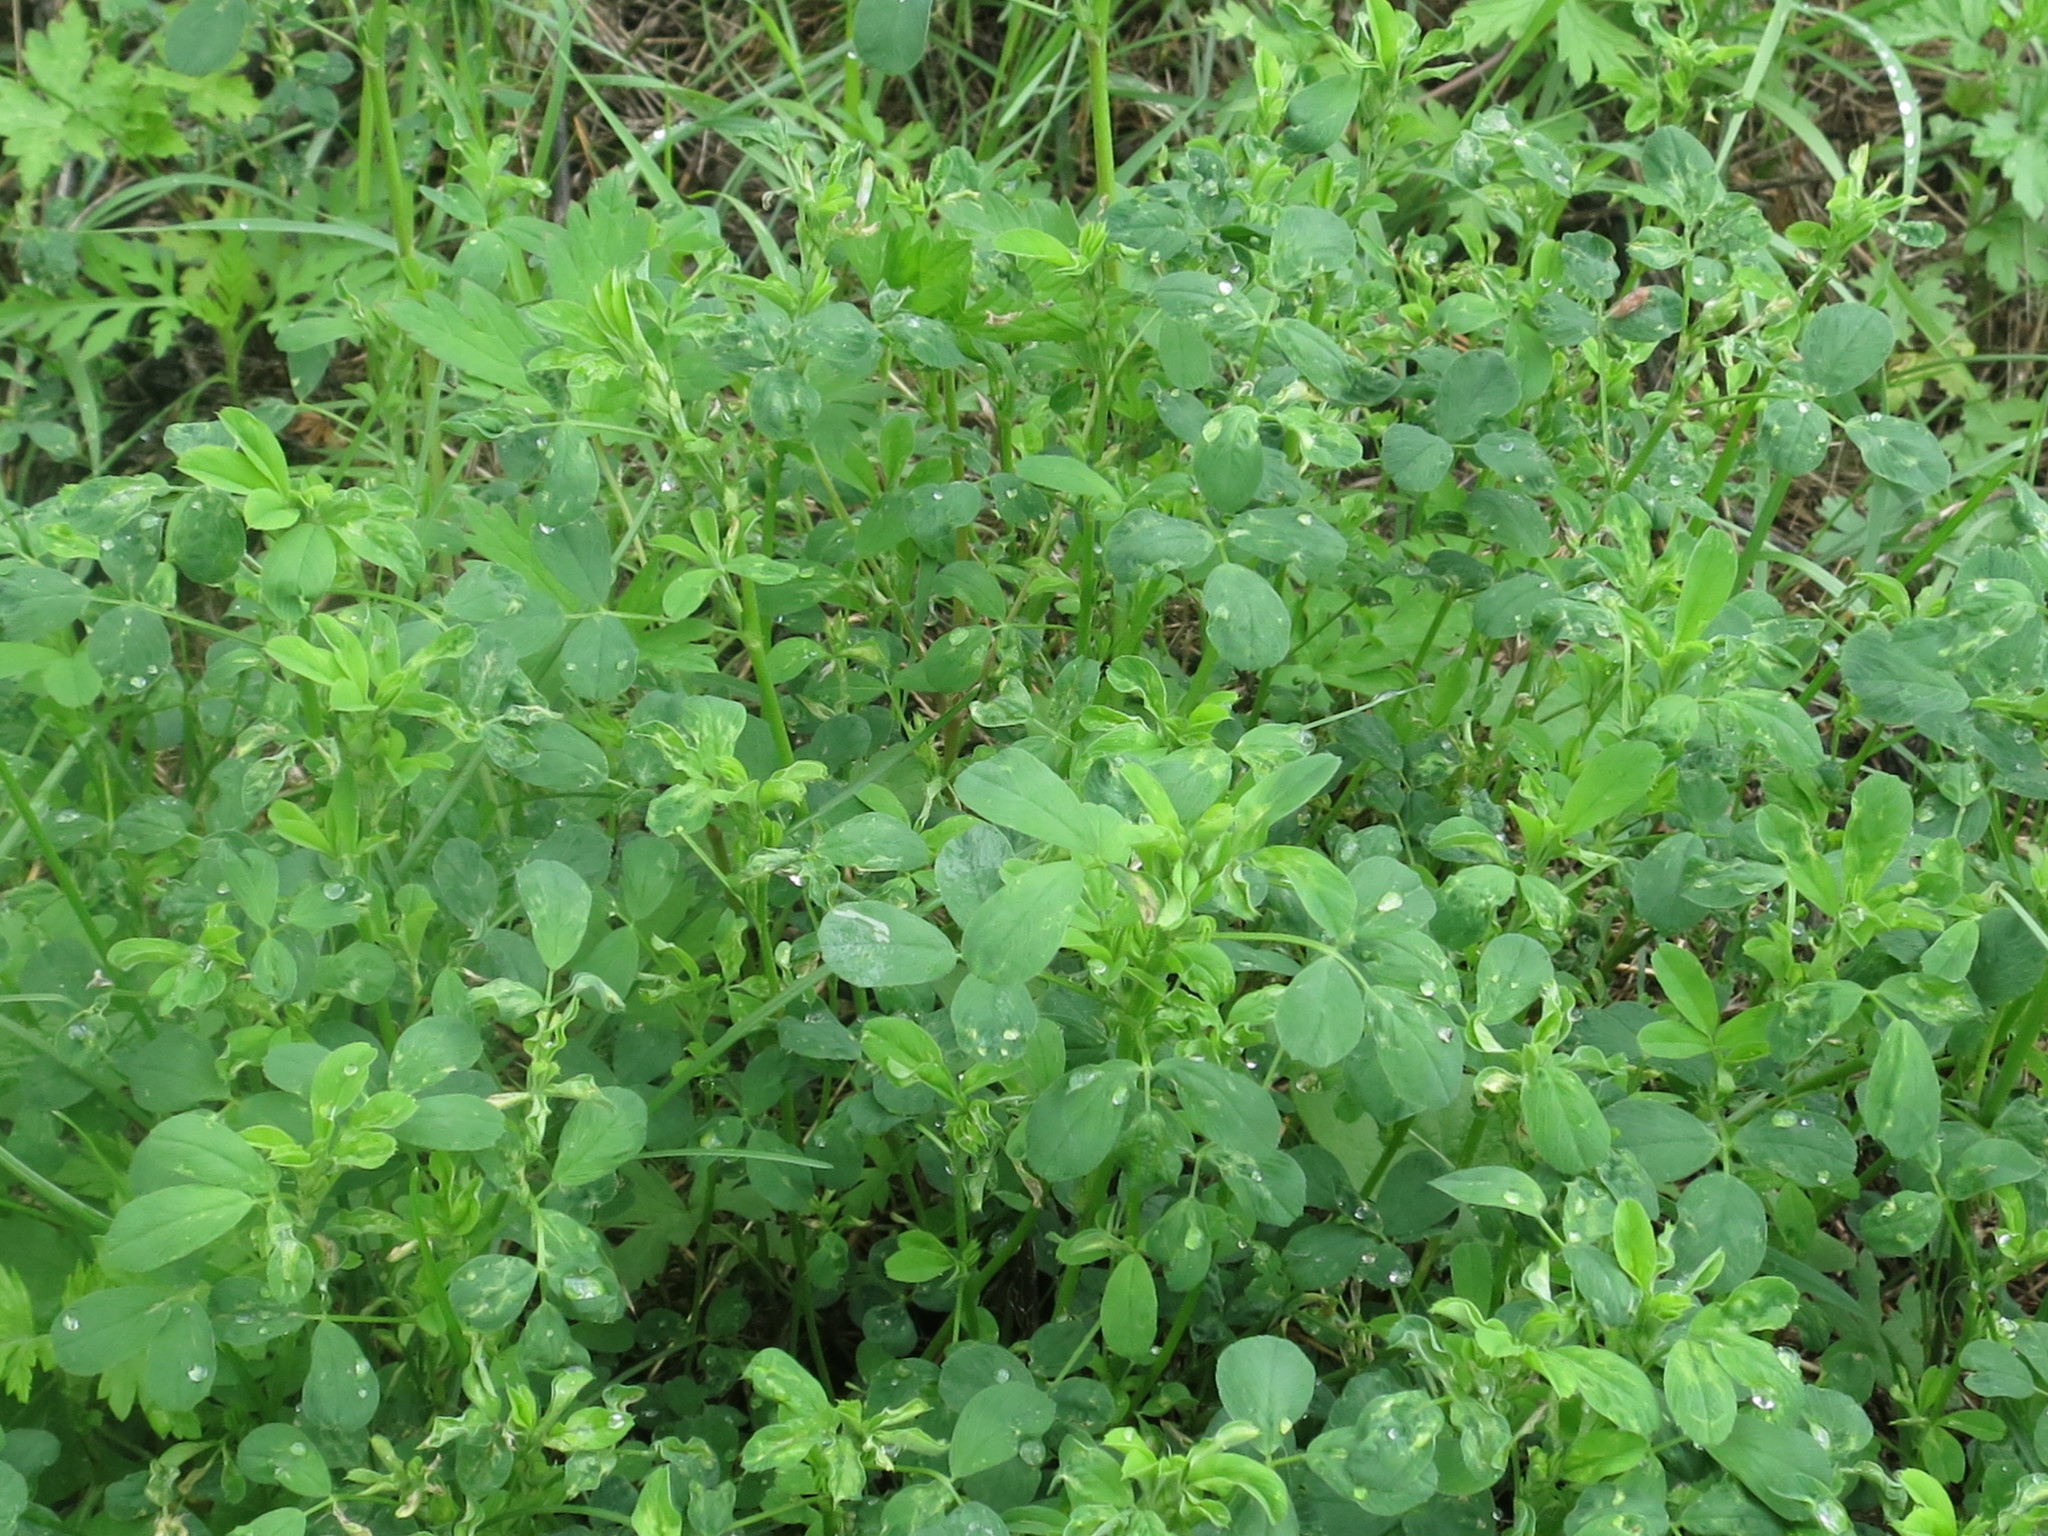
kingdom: Plantae
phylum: Tracheophyta
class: Magnoliopsida
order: Fabales
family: Fabaceae
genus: Medicago
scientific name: Medicago falcata
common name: Sickle medick
